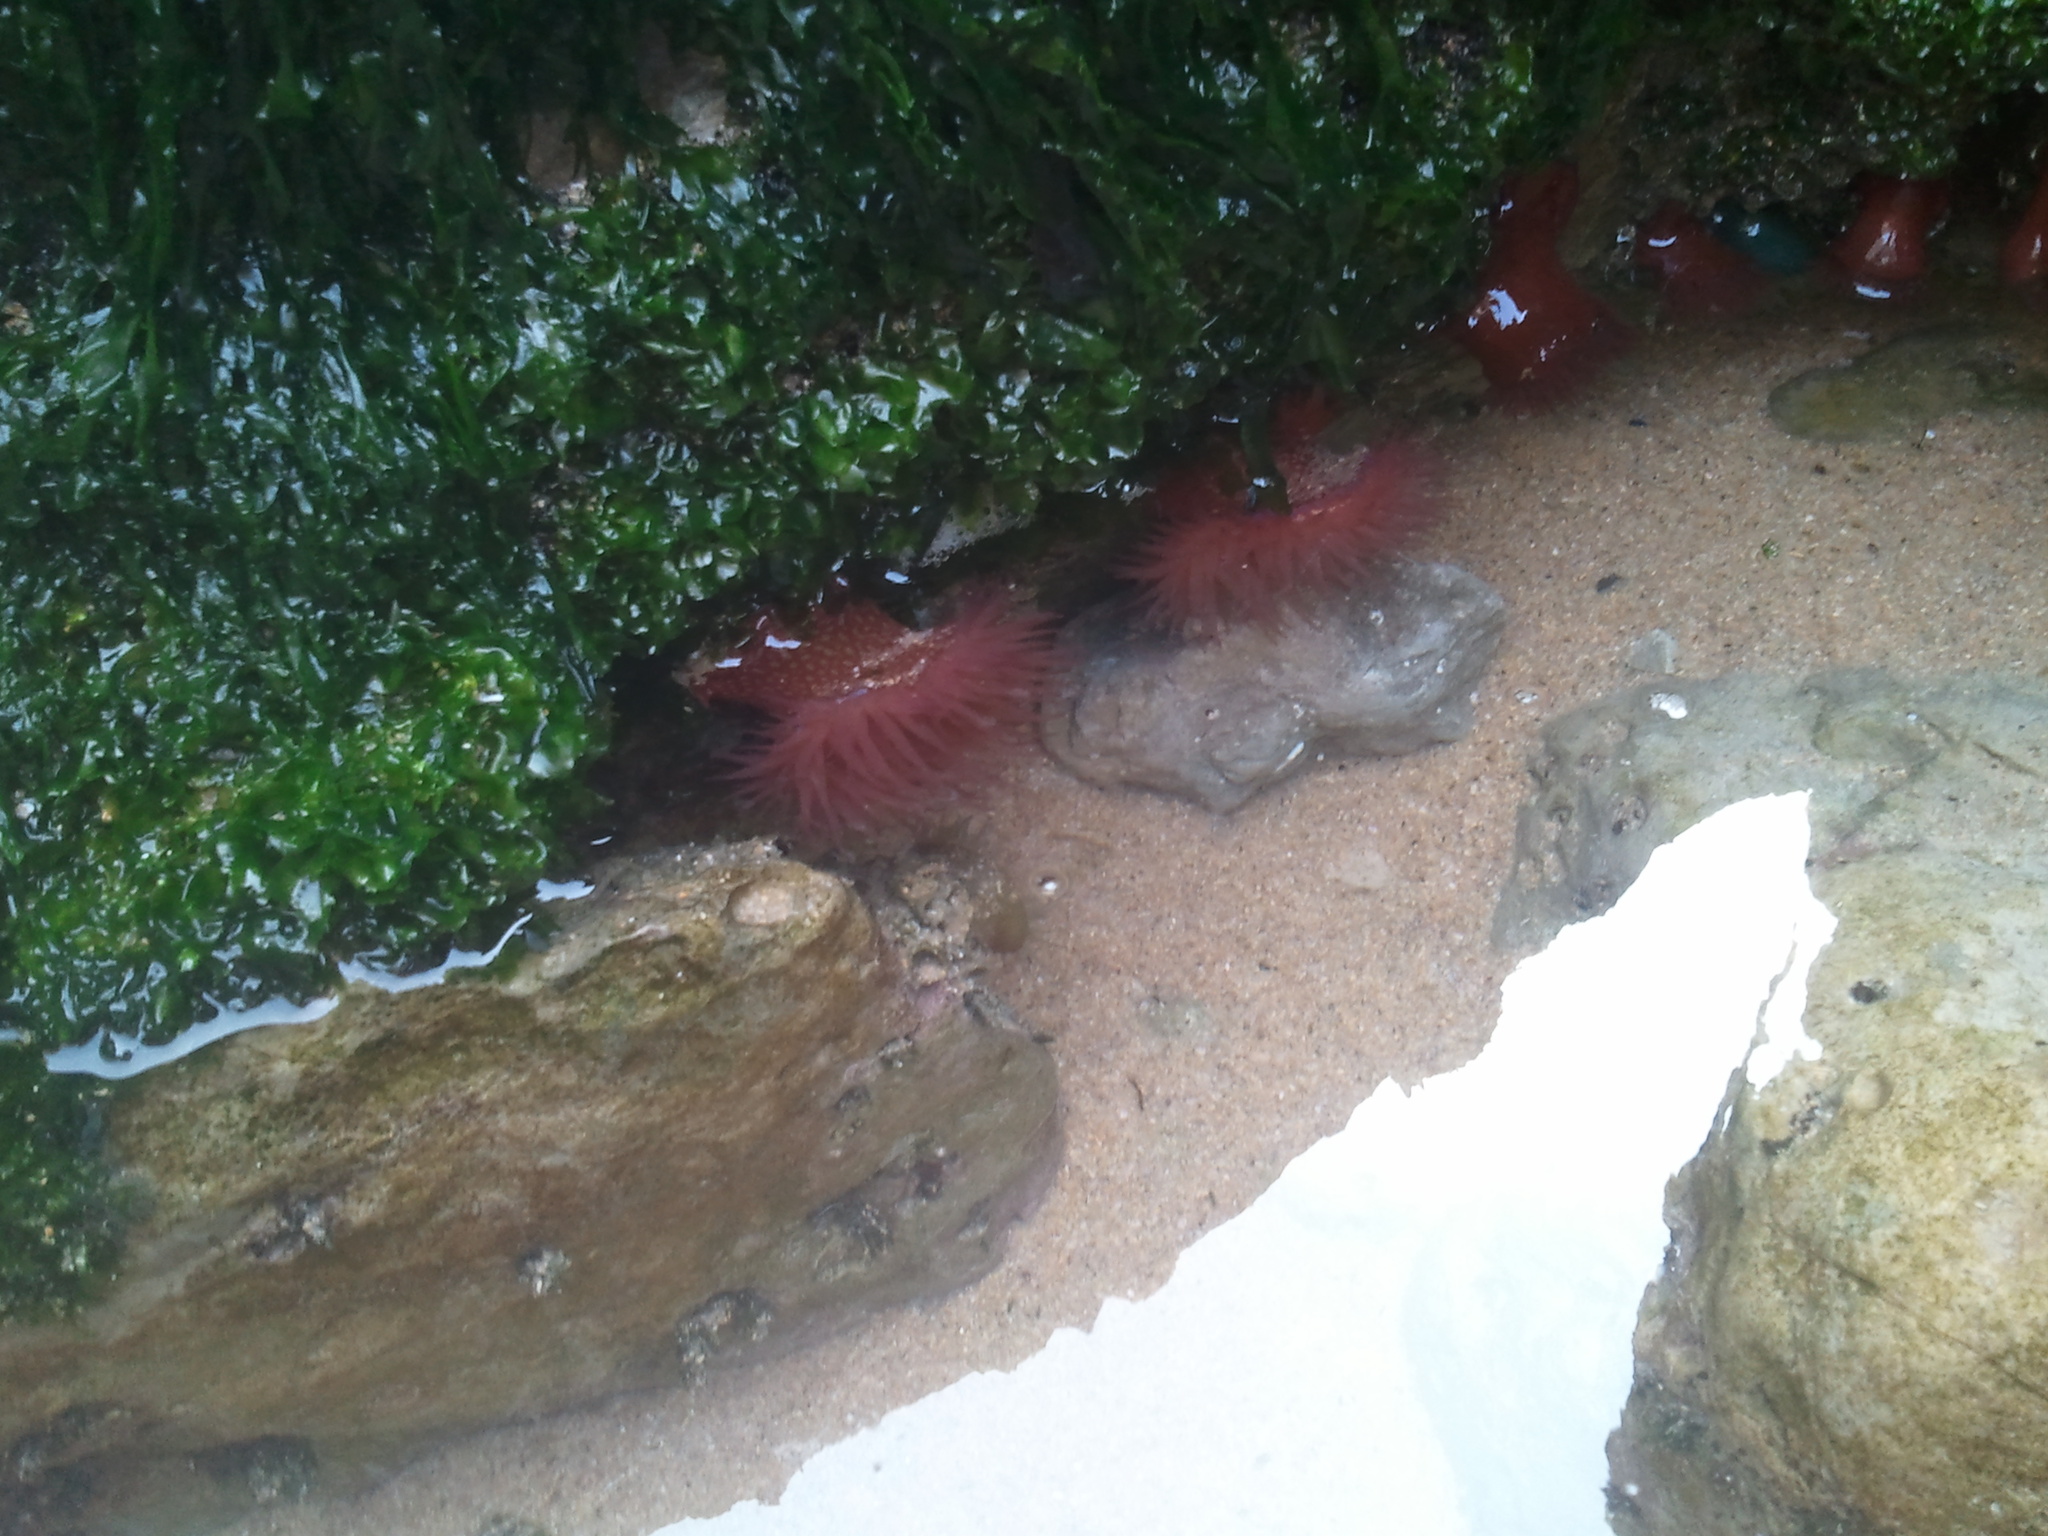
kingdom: Animalia
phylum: Cnidaria
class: Anthozoa
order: Actiniaria
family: Actiniidae
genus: Actinia
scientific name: Actinia fragacea
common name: Strawberry anemone
